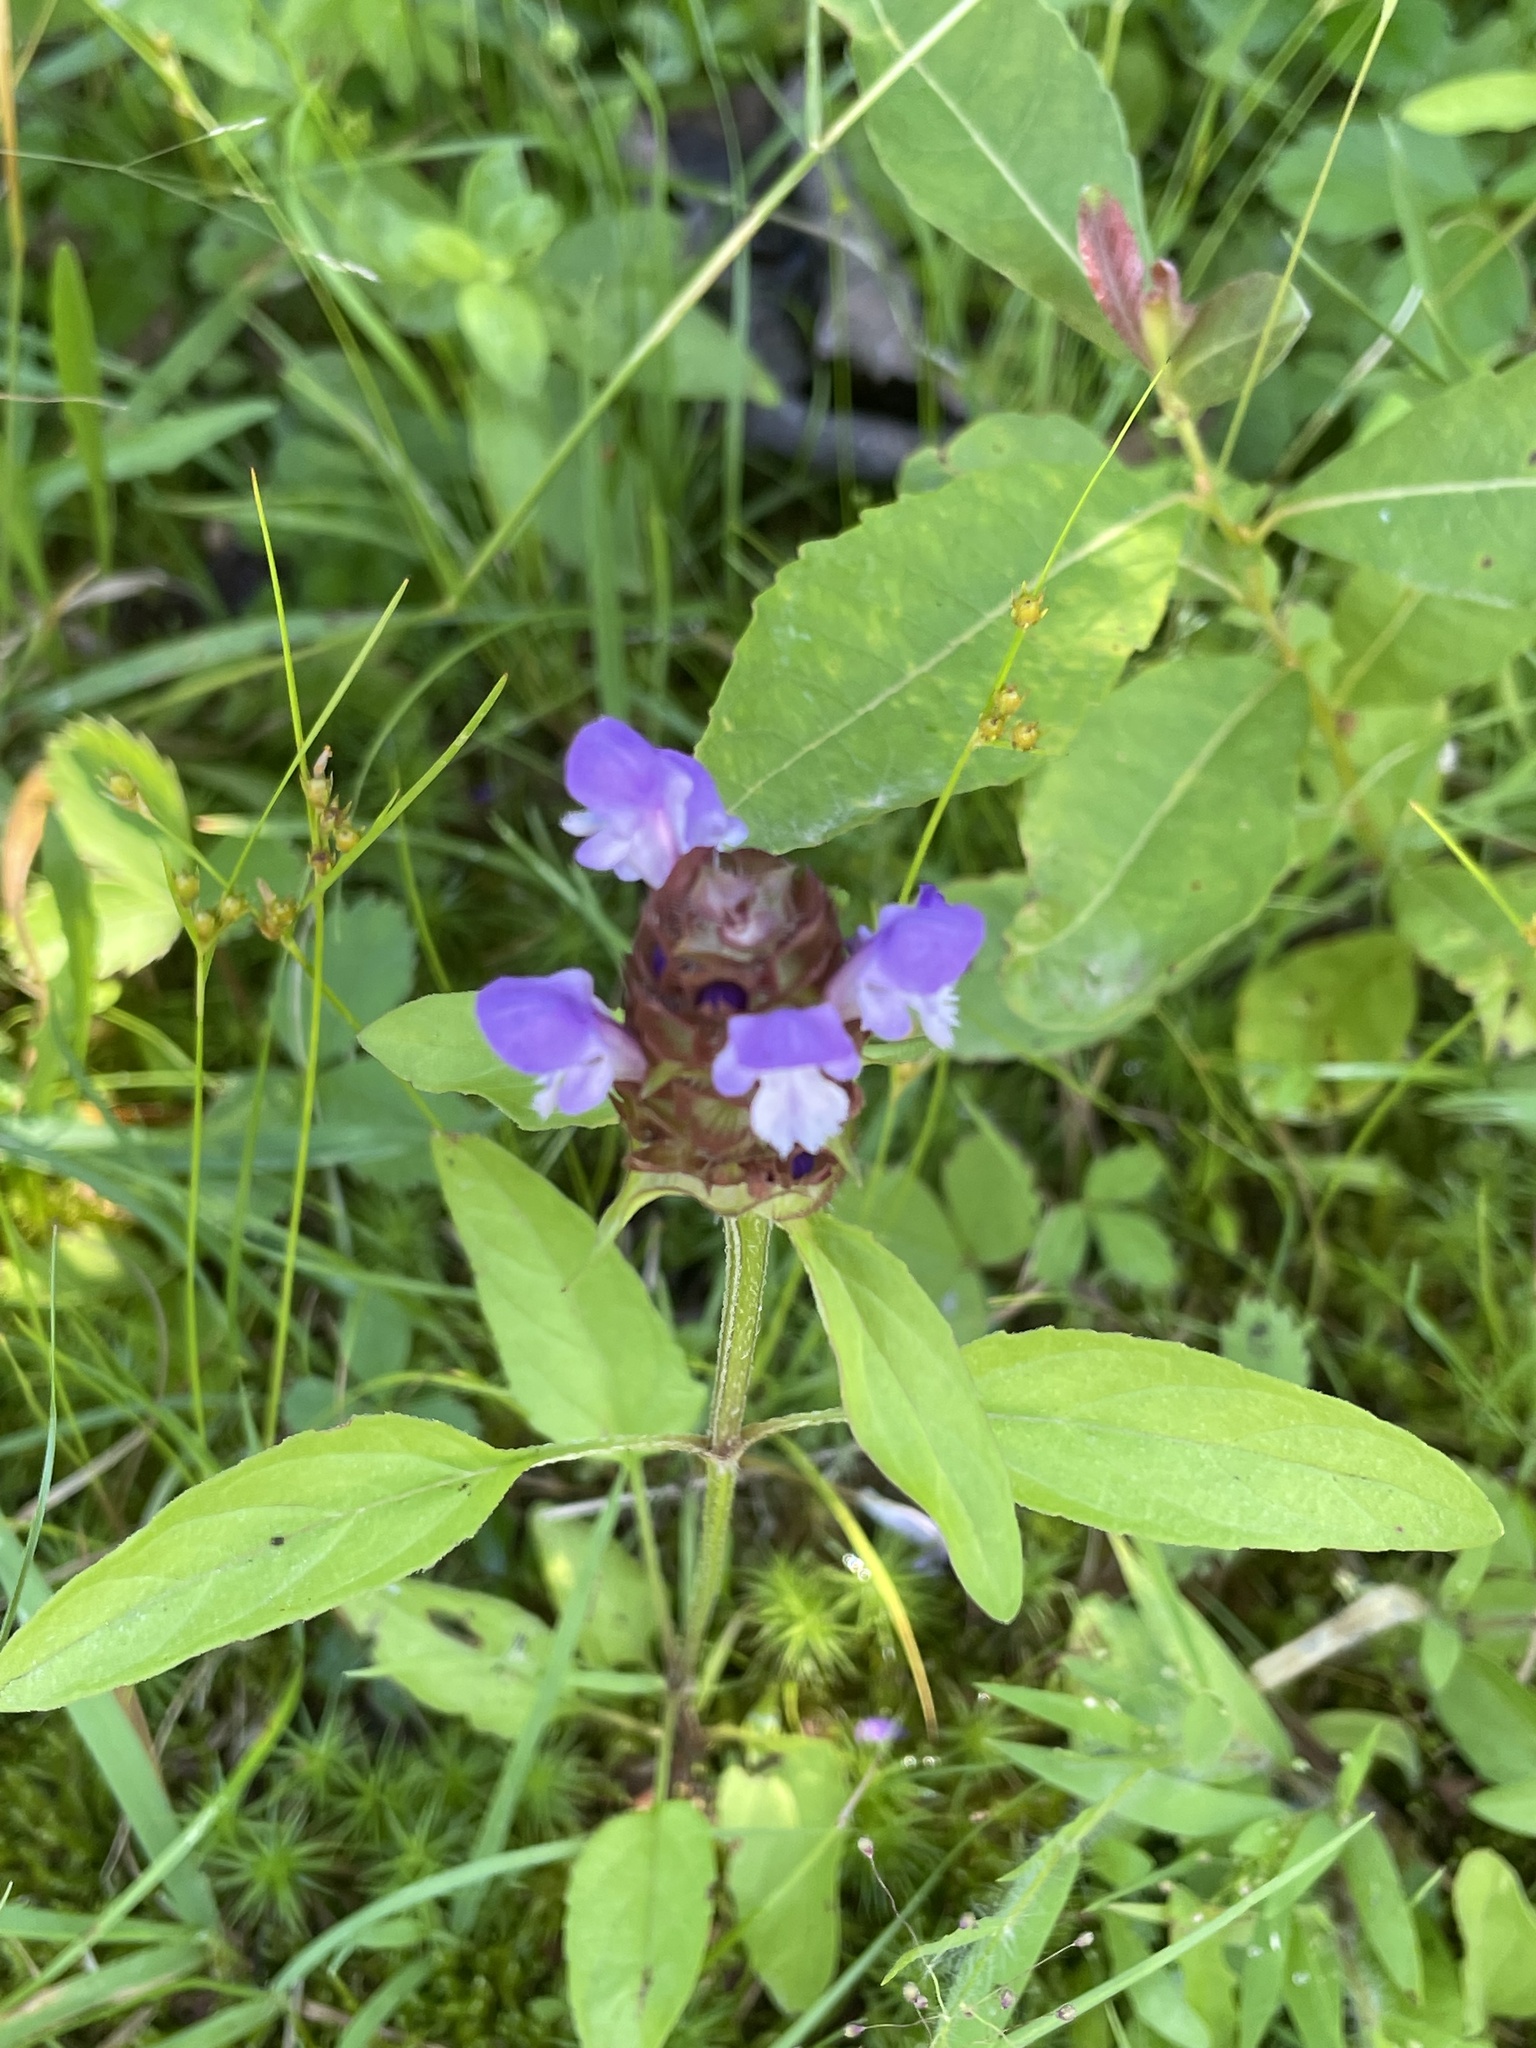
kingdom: Plantae
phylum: Tracheophyta
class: Magnoliopsida
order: Lamiales
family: Lamiaceae
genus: Prunella
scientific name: Prunella vulgaris
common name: Heal-all
